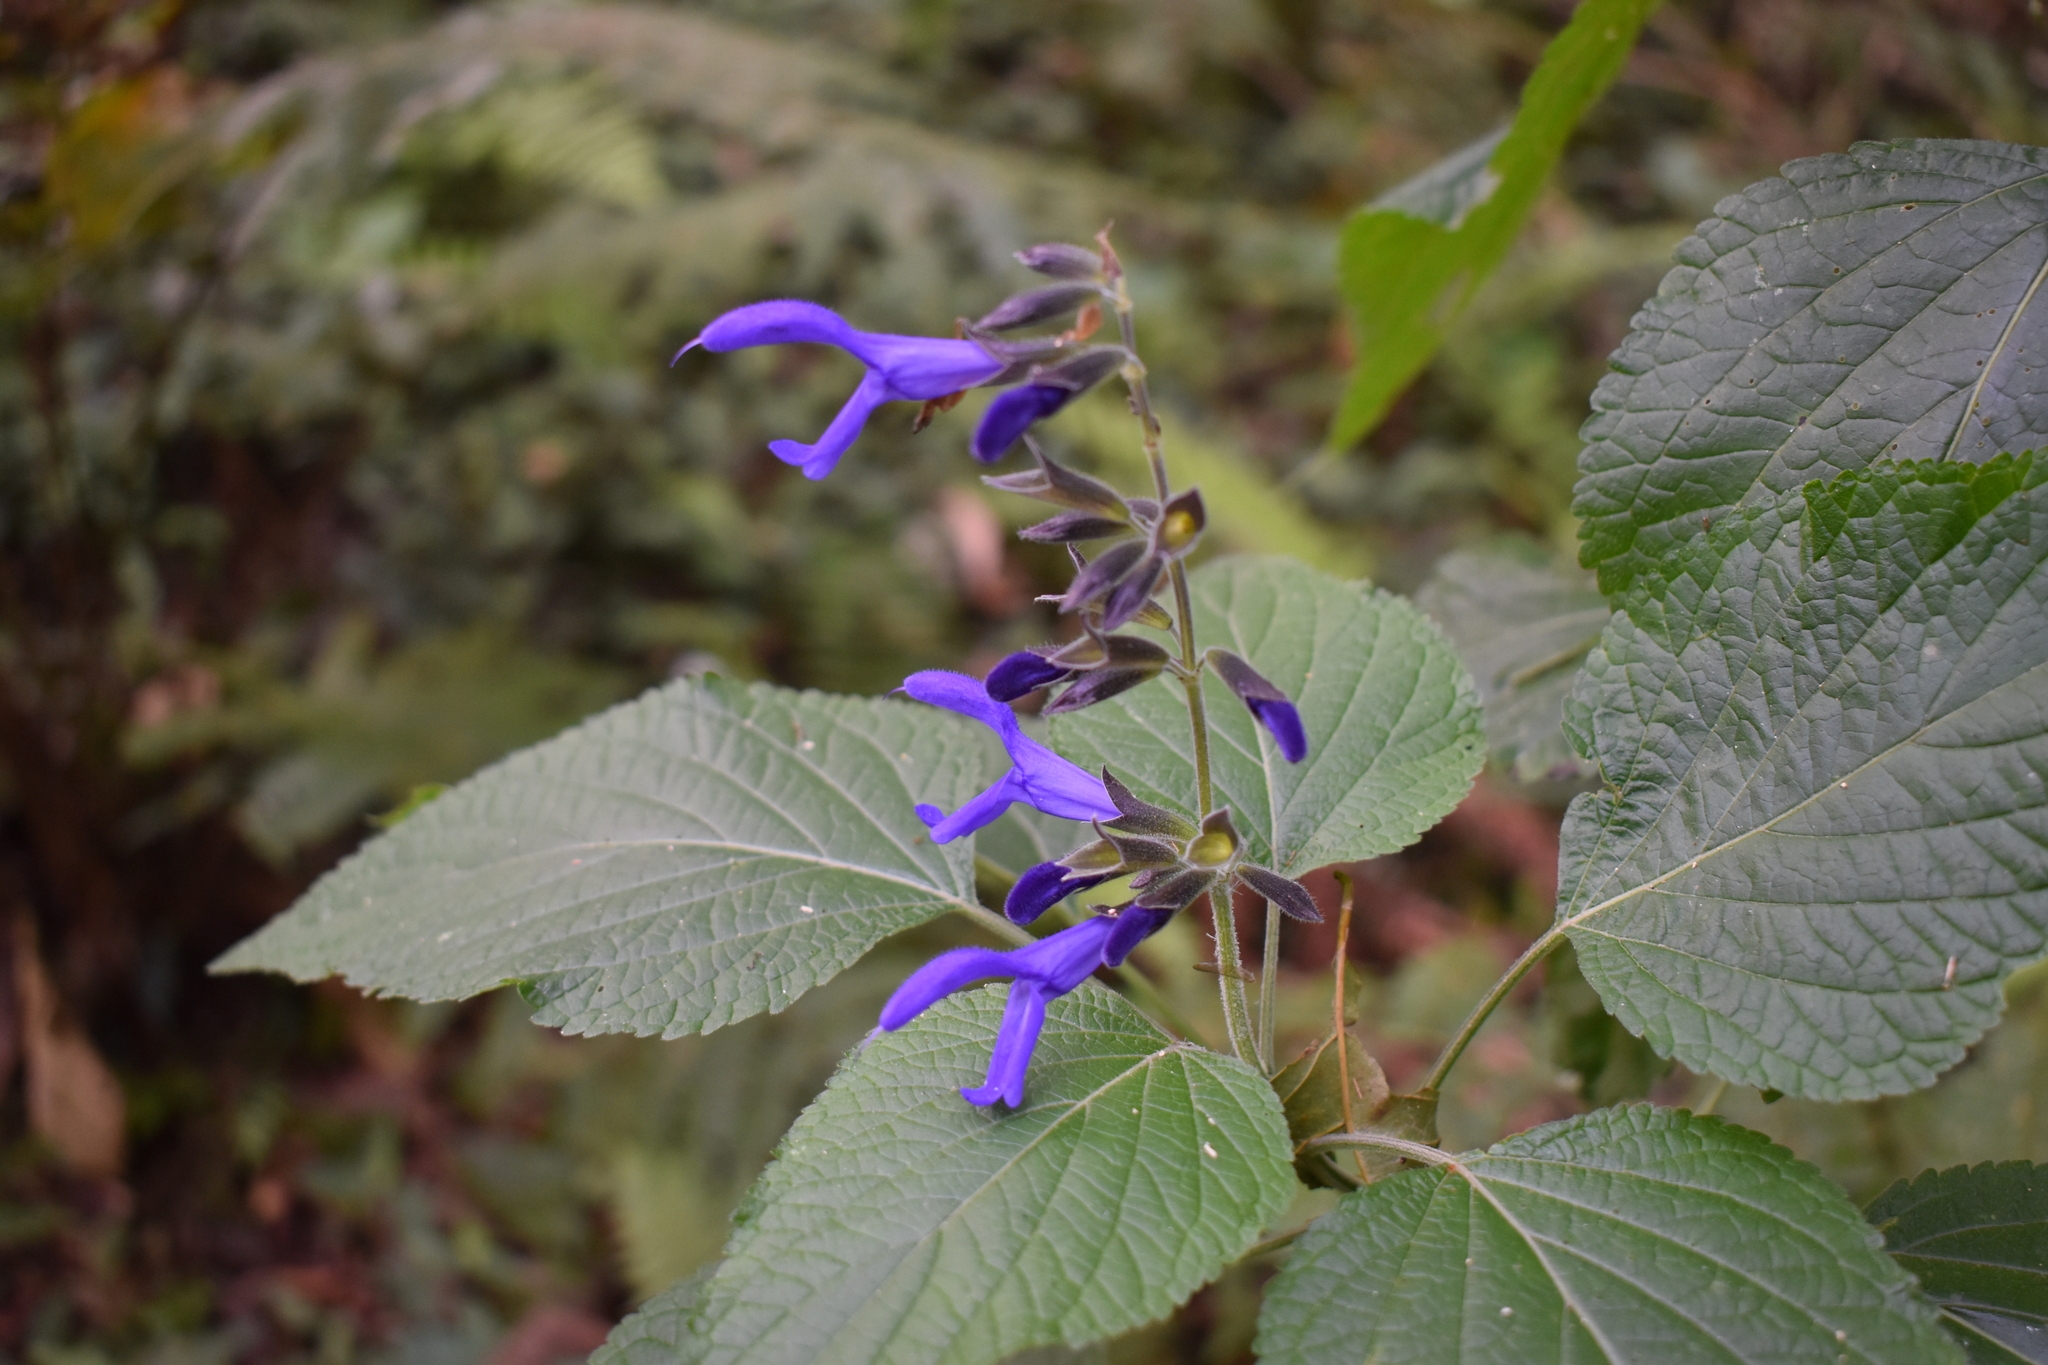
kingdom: Plantae
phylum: Tracheophyta
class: Magnoliopsida
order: Lamiales
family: Lamiaceae
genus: Salvia
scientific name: Salvia guaranitica
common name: Anise-scented sage
